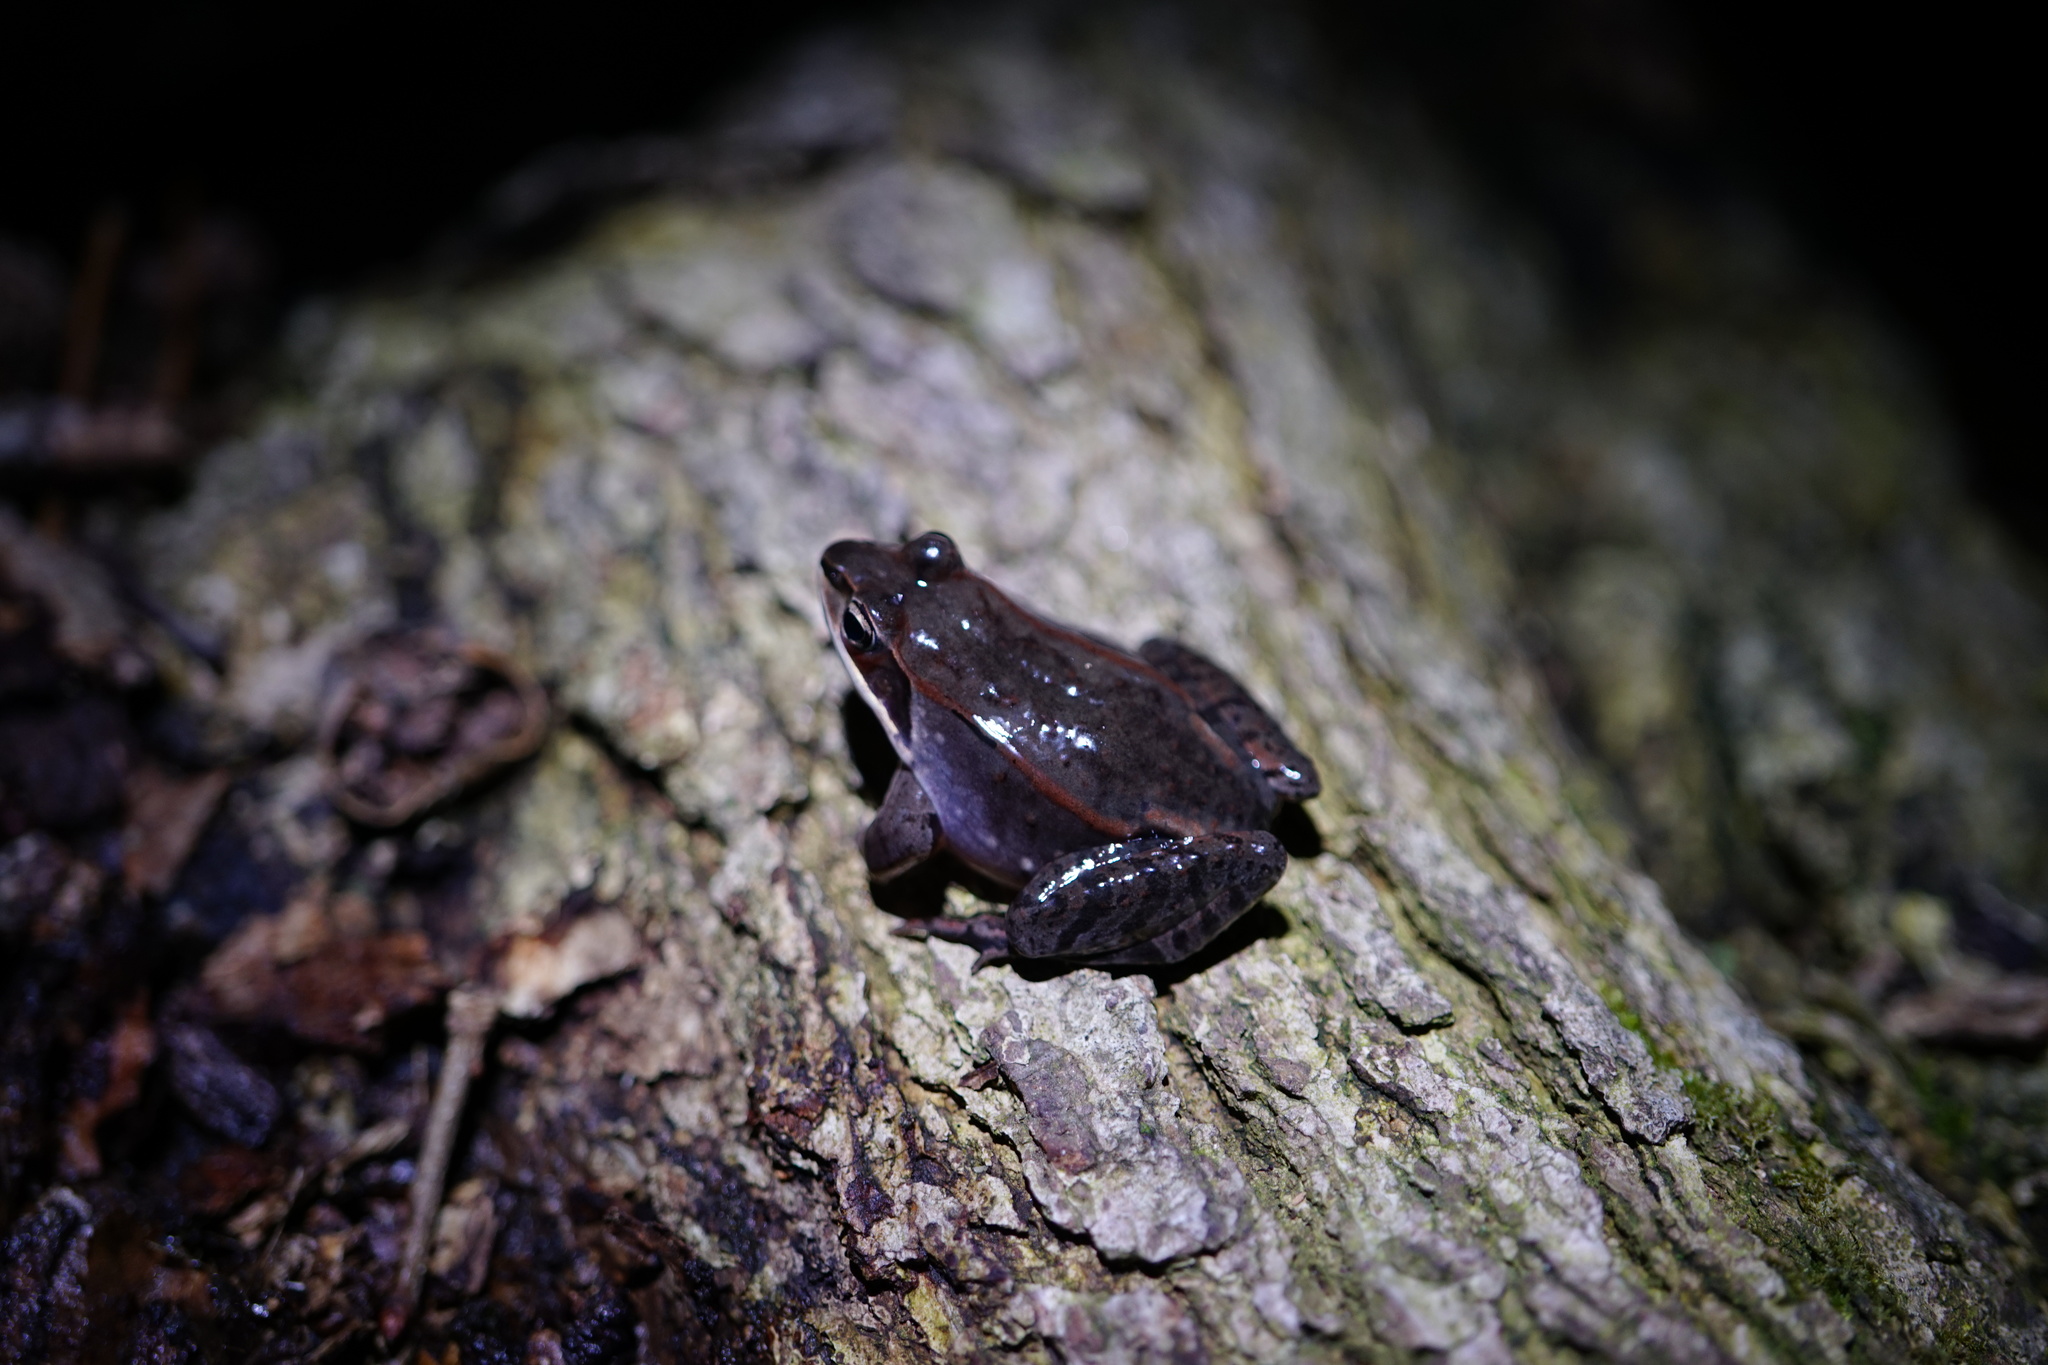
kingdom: Animalia
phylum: Chordata
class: Amphibia
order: Anura
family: Ranidae
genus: Lithobates
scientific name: Lithobates sylvaticus
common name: Wood frog
